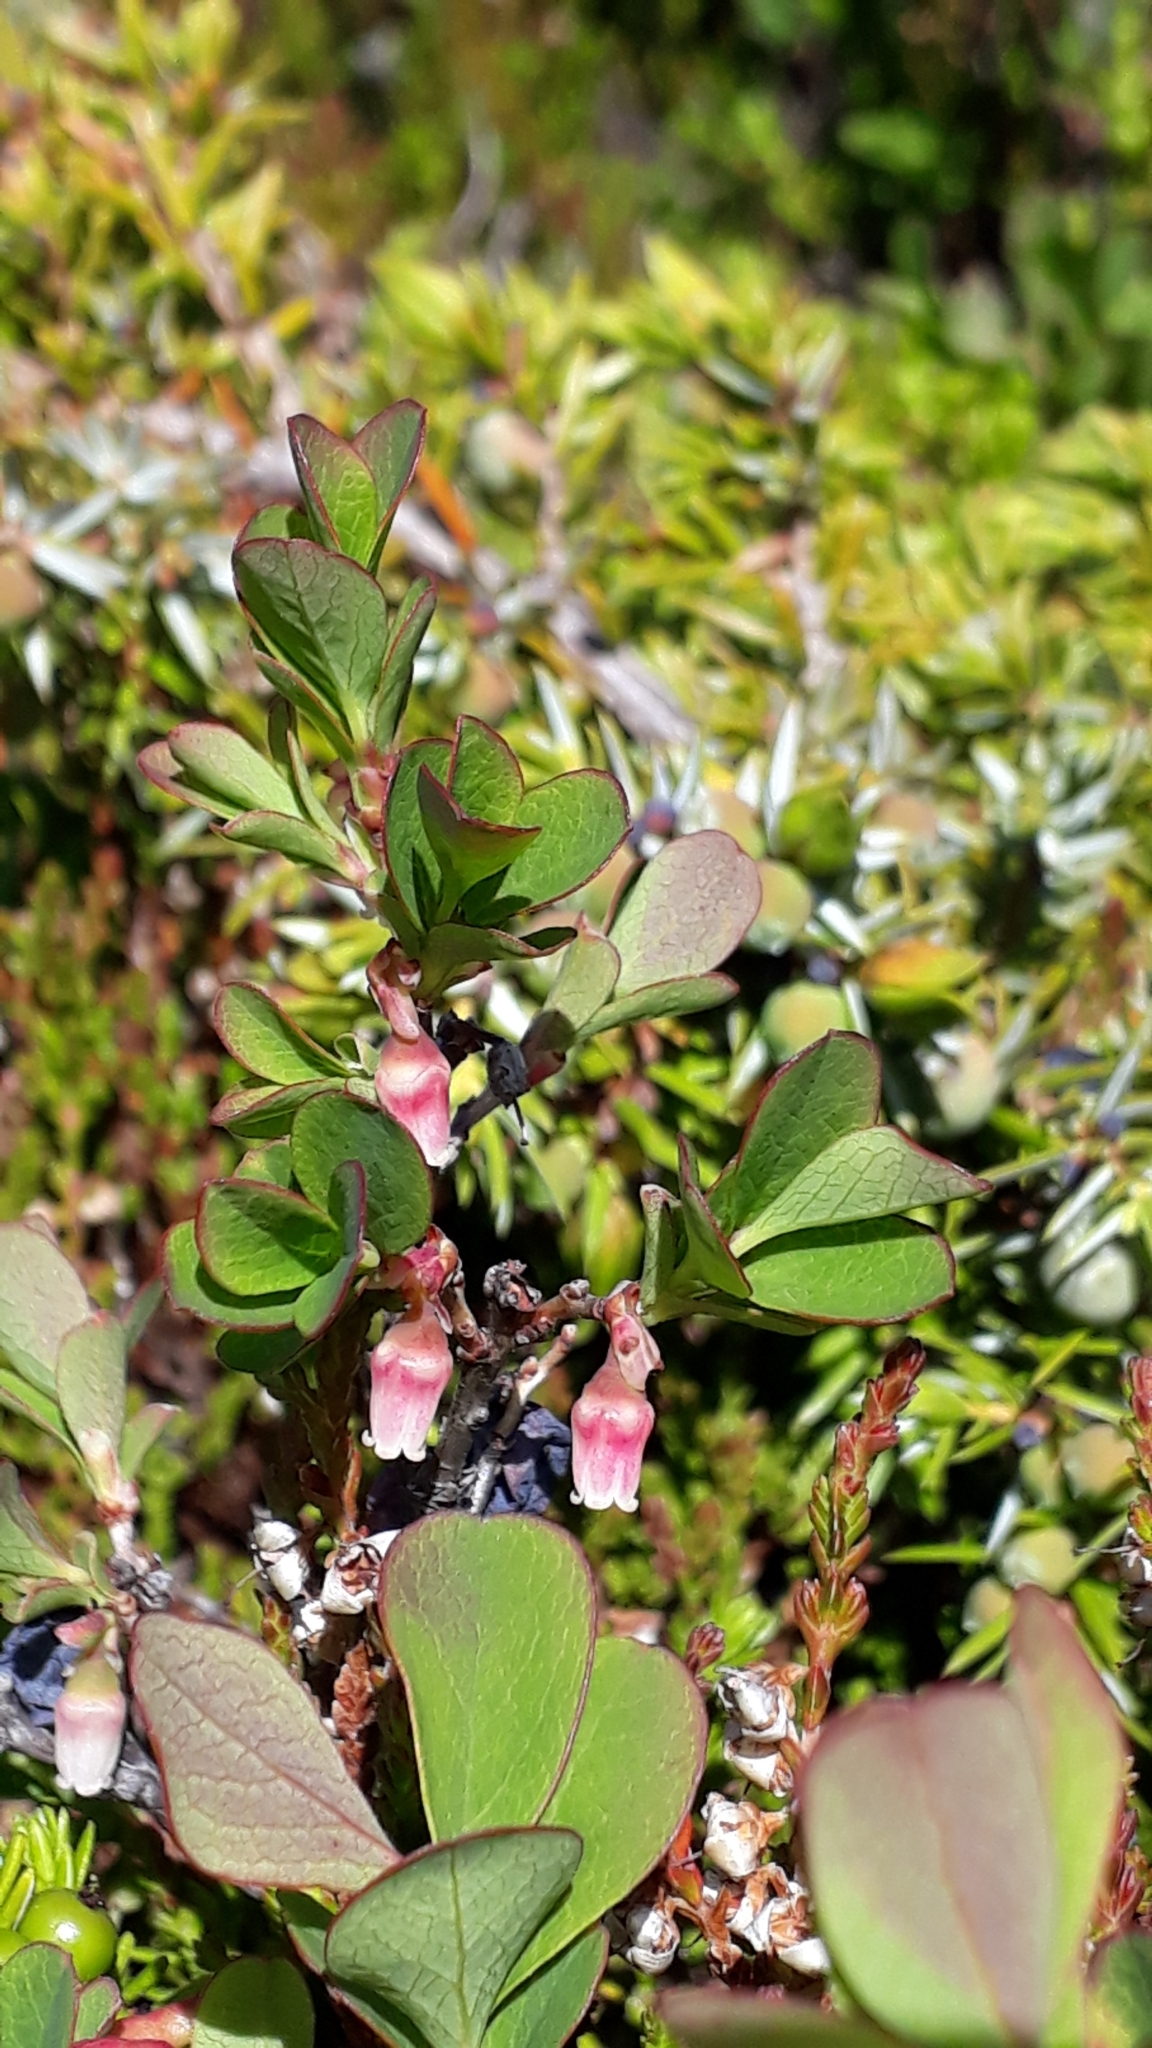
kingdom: Plantae
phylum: Tracheophyta
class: Magnoliopsida
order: Ericales
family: Ericaceae
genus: Vaccinium
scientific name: Vaccinium uliginosum
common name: Bog bilberry
